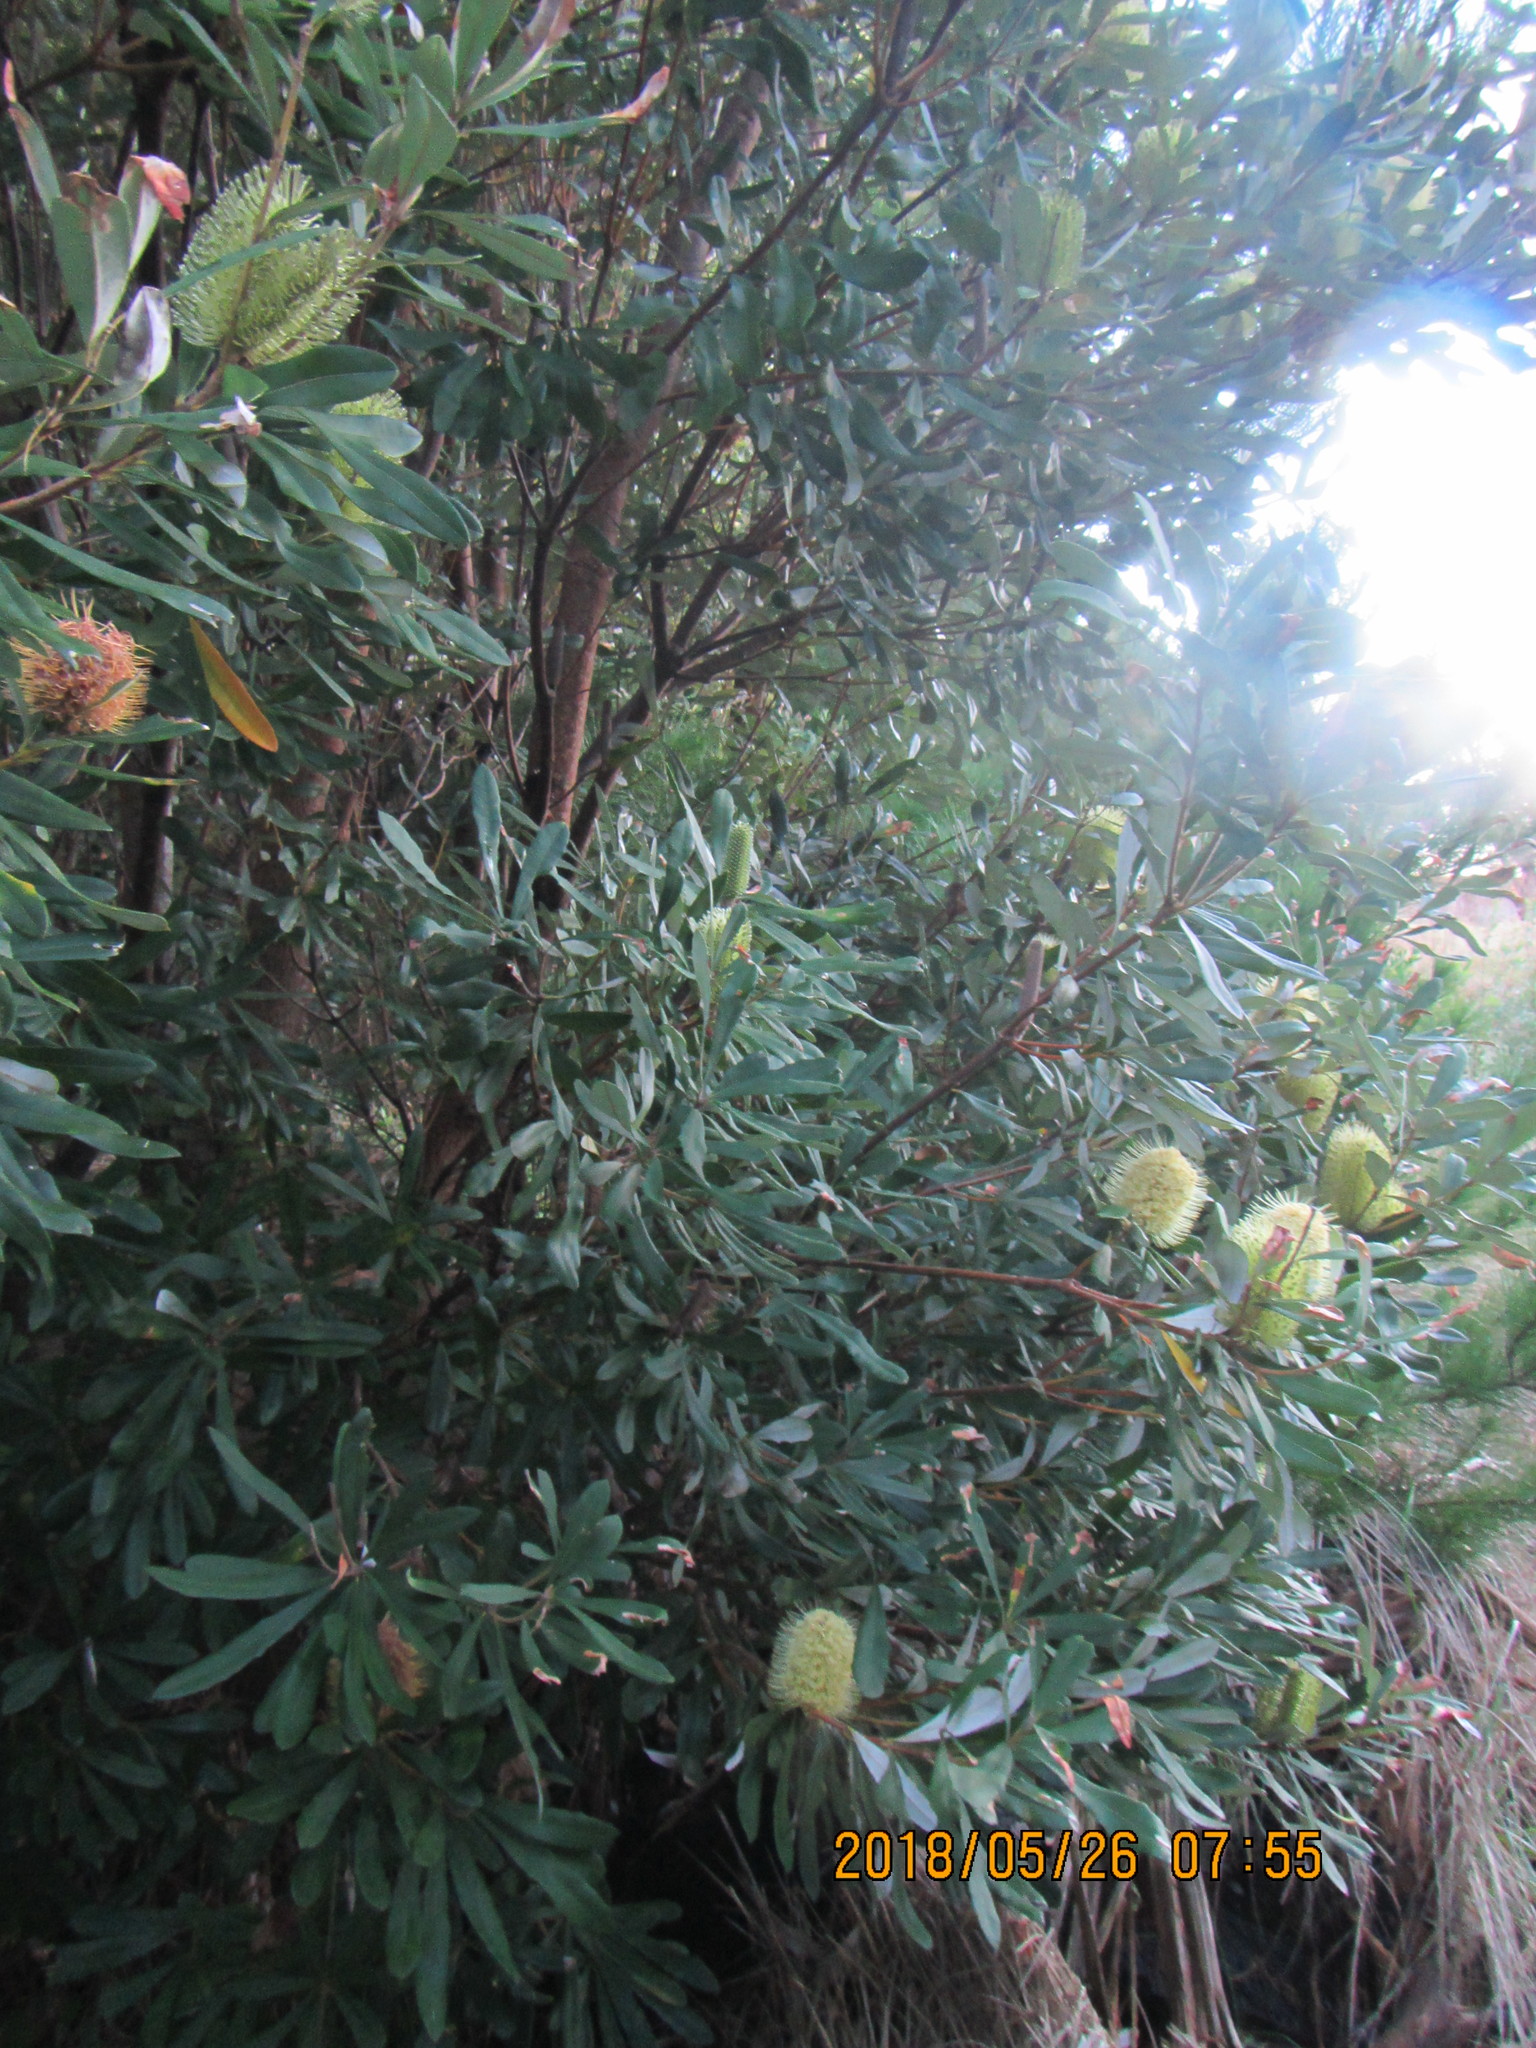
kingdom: Plantae
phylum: Tracheophyta
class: Magnoliopsida
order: Proteales
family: Proteaceae
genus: Banksia
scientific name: Banksia integrifolia
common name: White-honeysuckle
